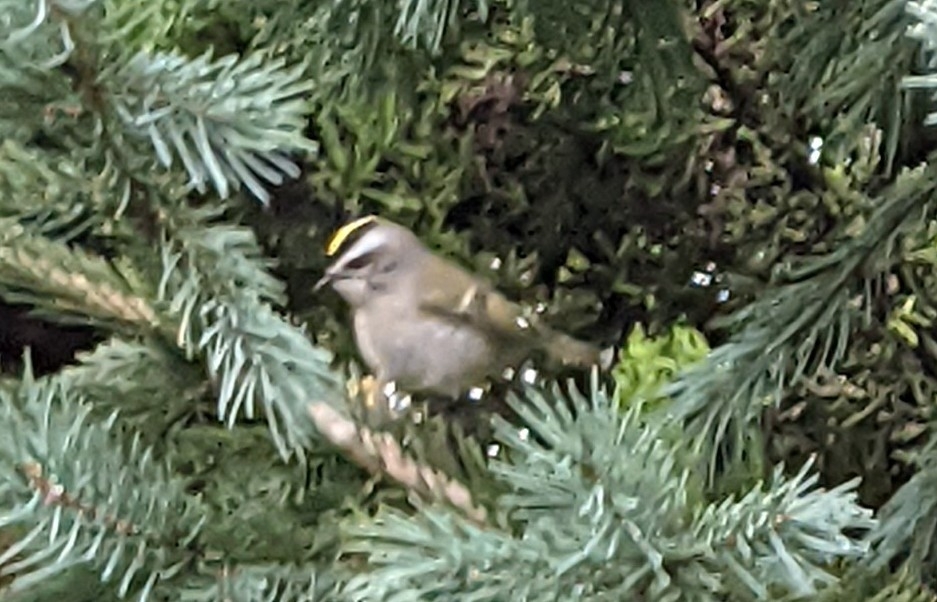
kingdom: Animalia
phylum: Chordata
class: Aves
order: Passeriformes
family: Regulidae
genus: Regulus
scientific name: Regulus satrapa
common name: Golden-crowned kinglet
